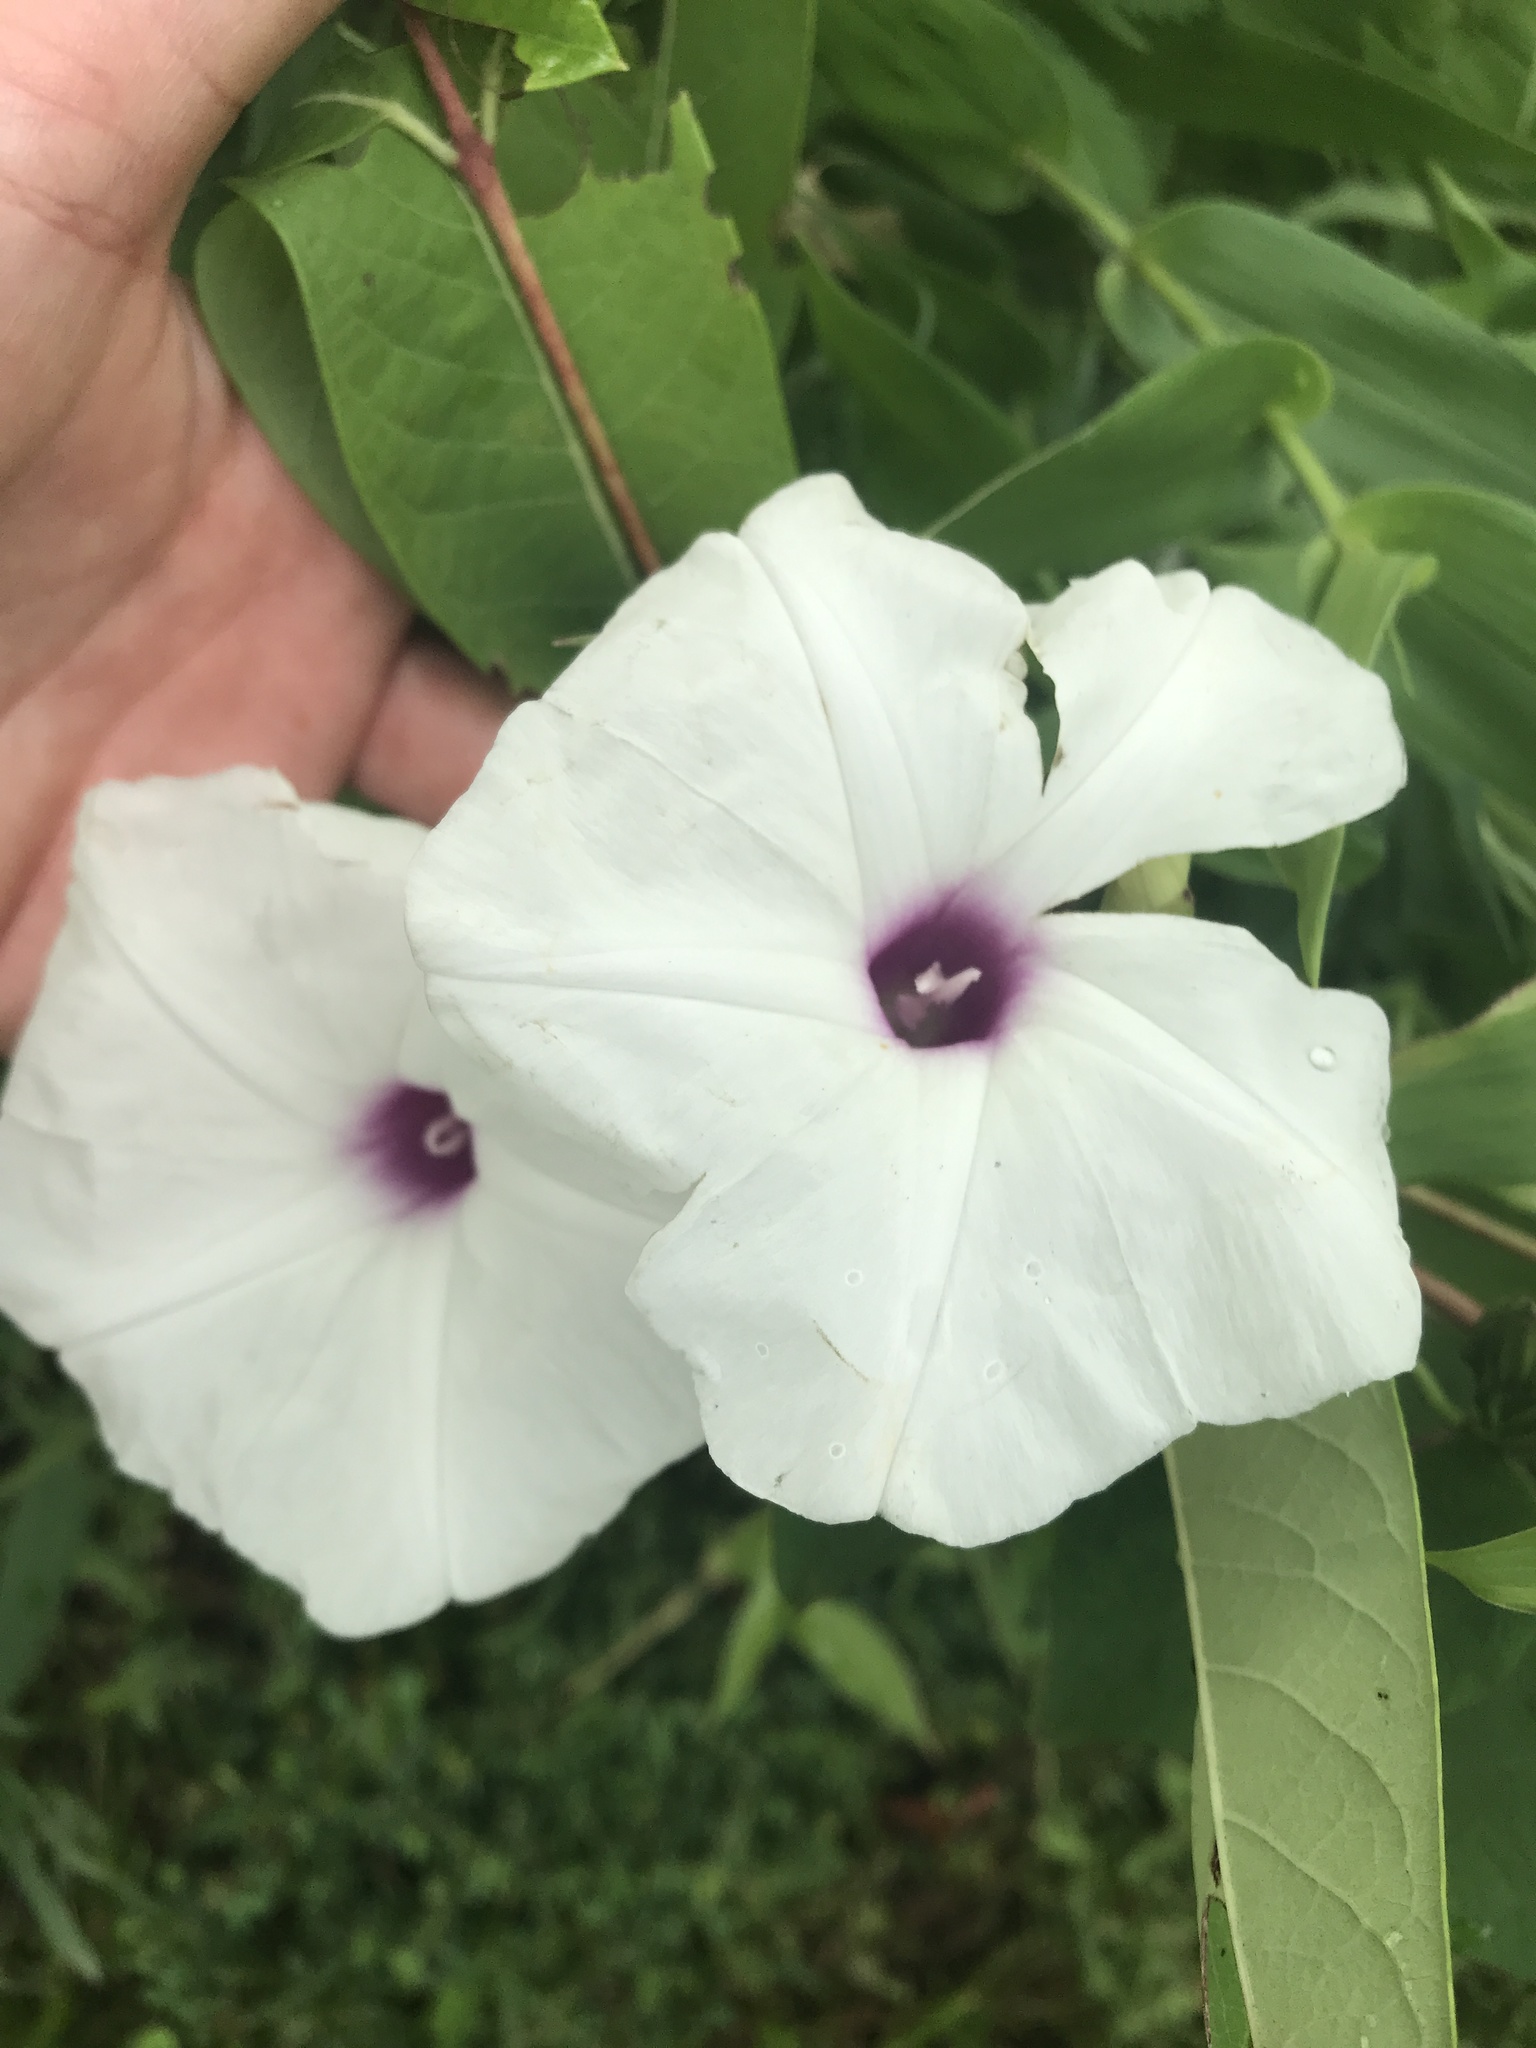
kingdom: Plantae
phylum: Tracheophyta
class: Magnoliopsida
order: Solanales
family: Convolvulaceae
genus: Ipomoea
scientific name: Ipomoea pandurata
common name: Man-of-the-earth
